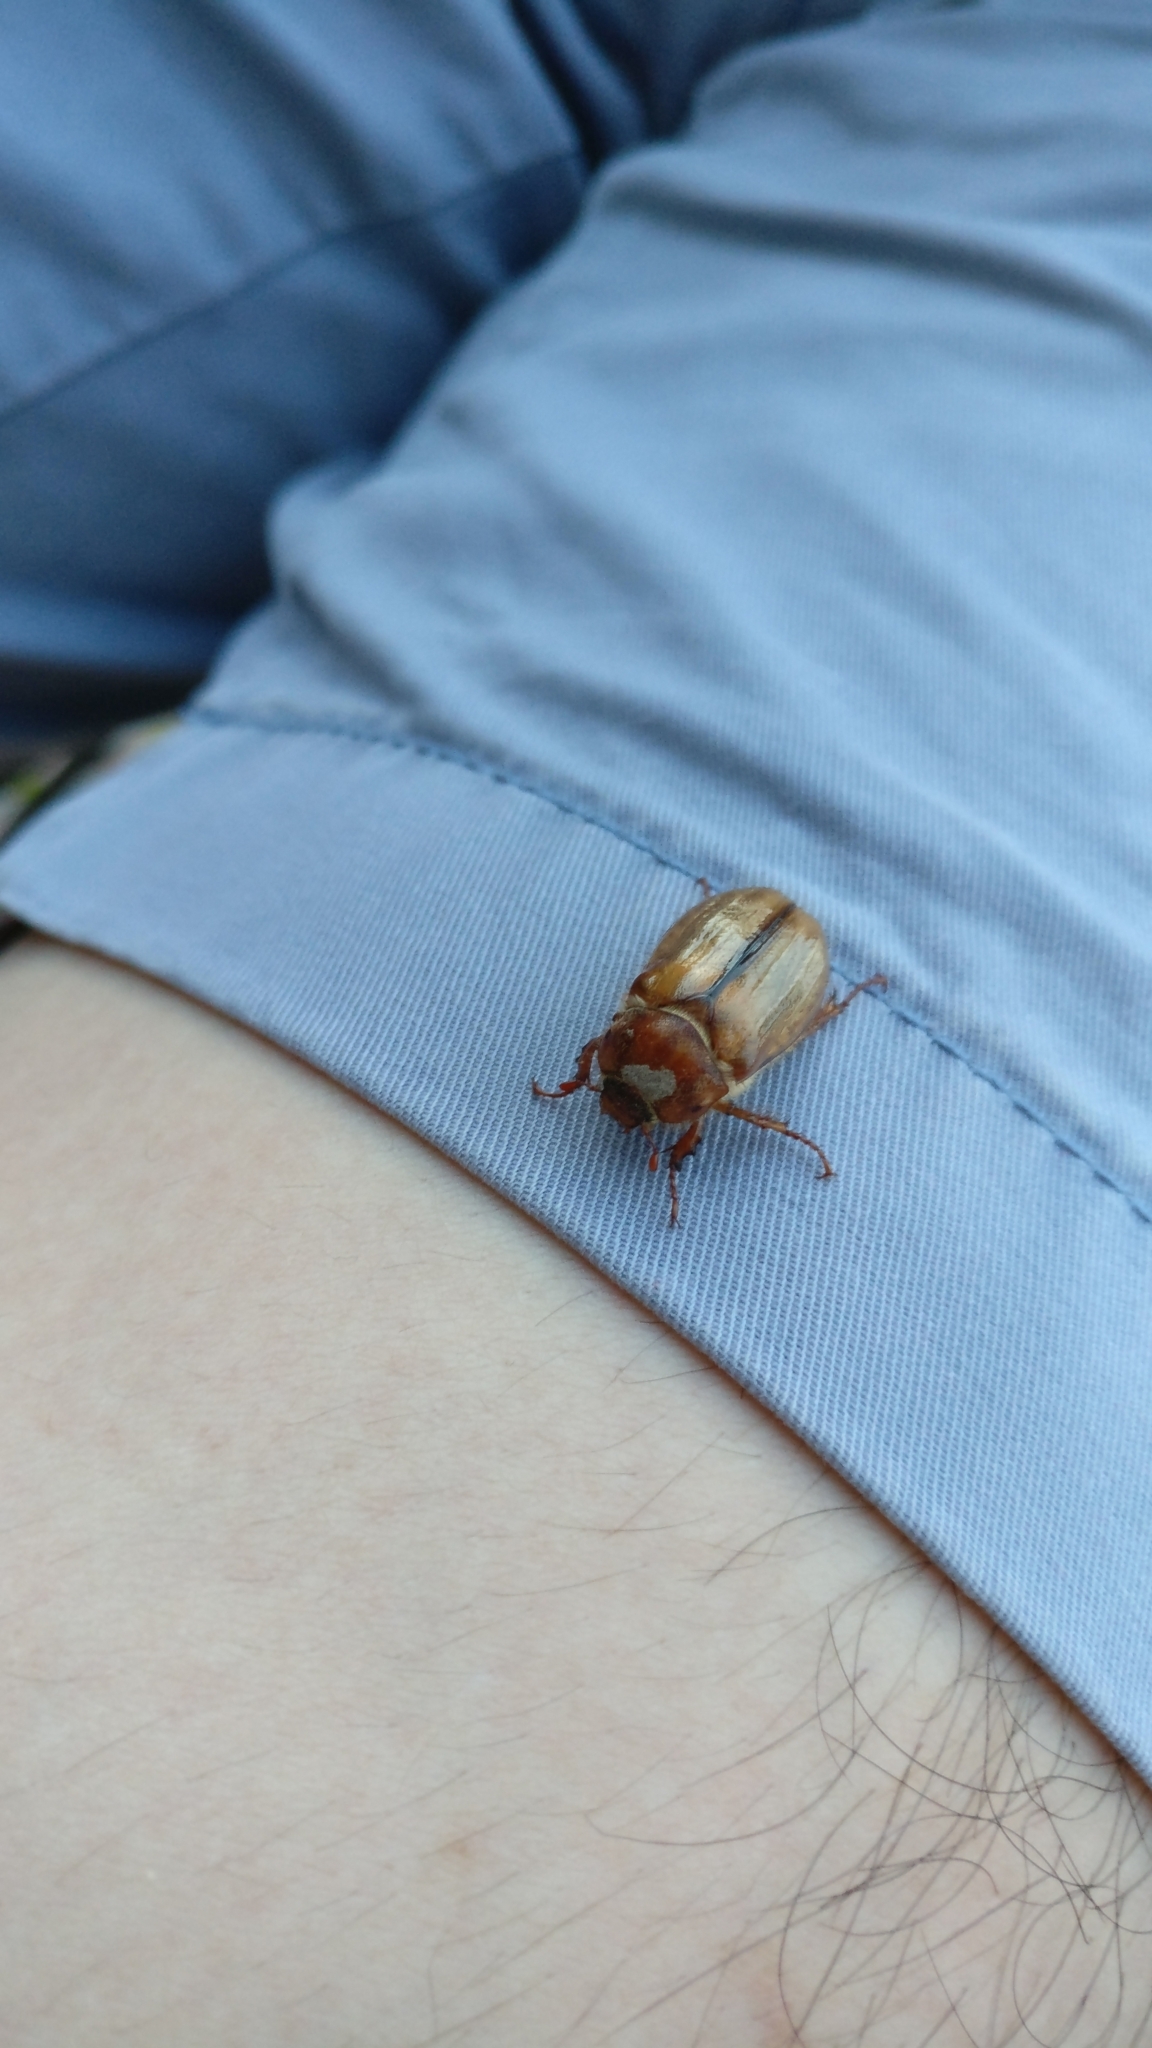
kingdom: Animalia
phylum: Arthropoda
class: Insecta
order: Coleoptera
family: Scarabaeidae
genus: Amphimallon
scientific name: Amphimallon solstitiale
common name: Summer chafer
